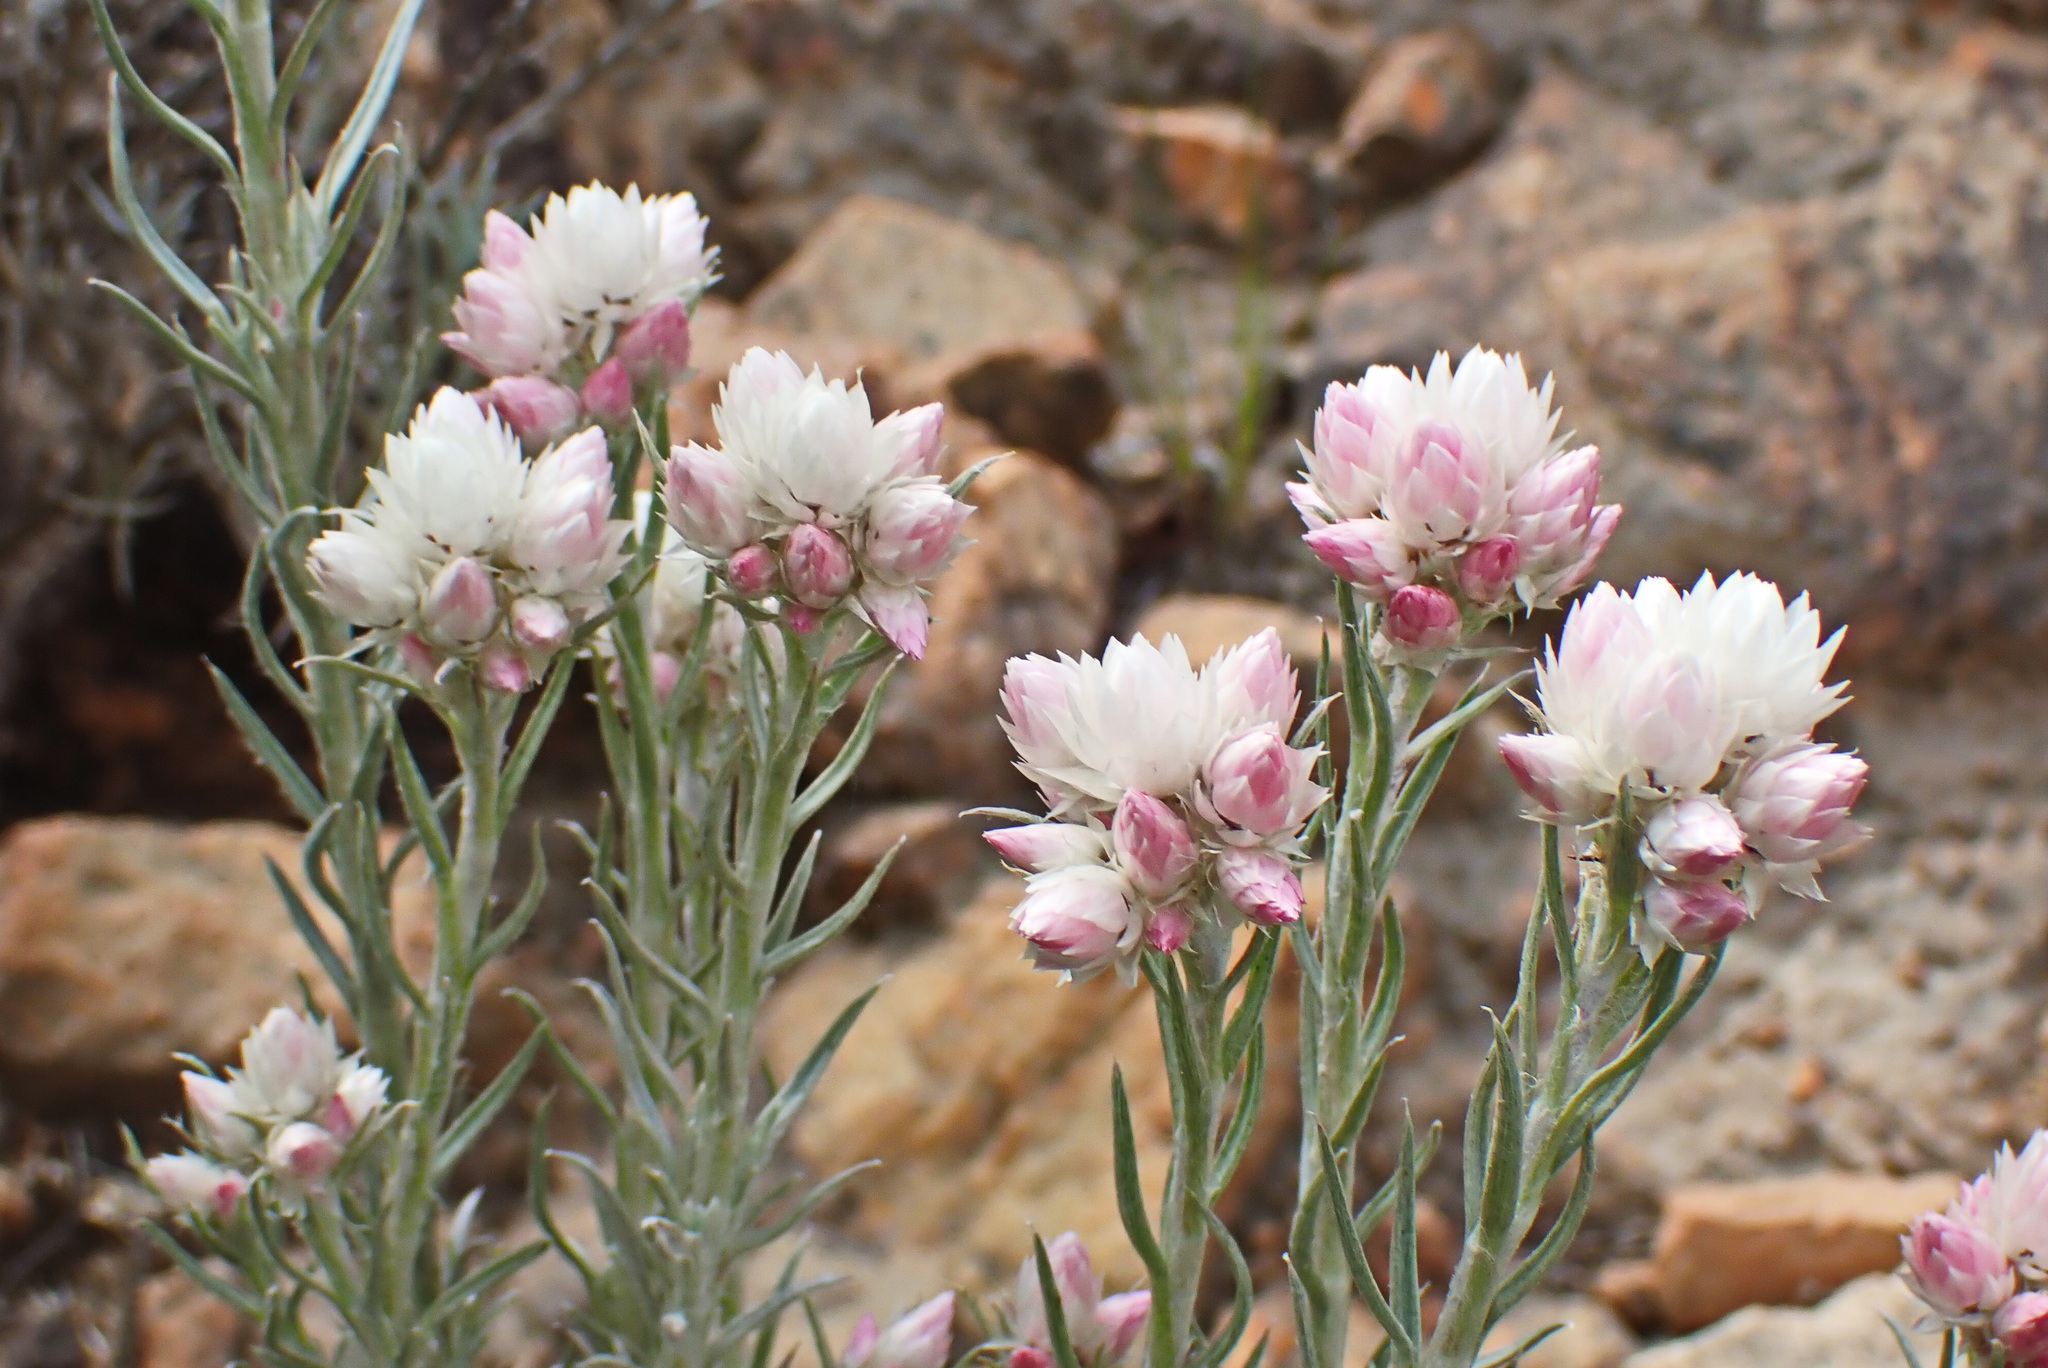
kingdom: Plantae
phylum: Tracheophyta
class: Magnoliopsida
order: Asterales
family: Asteraceae
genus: Achyranthemum
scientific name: Achyranthemum paniculatum
